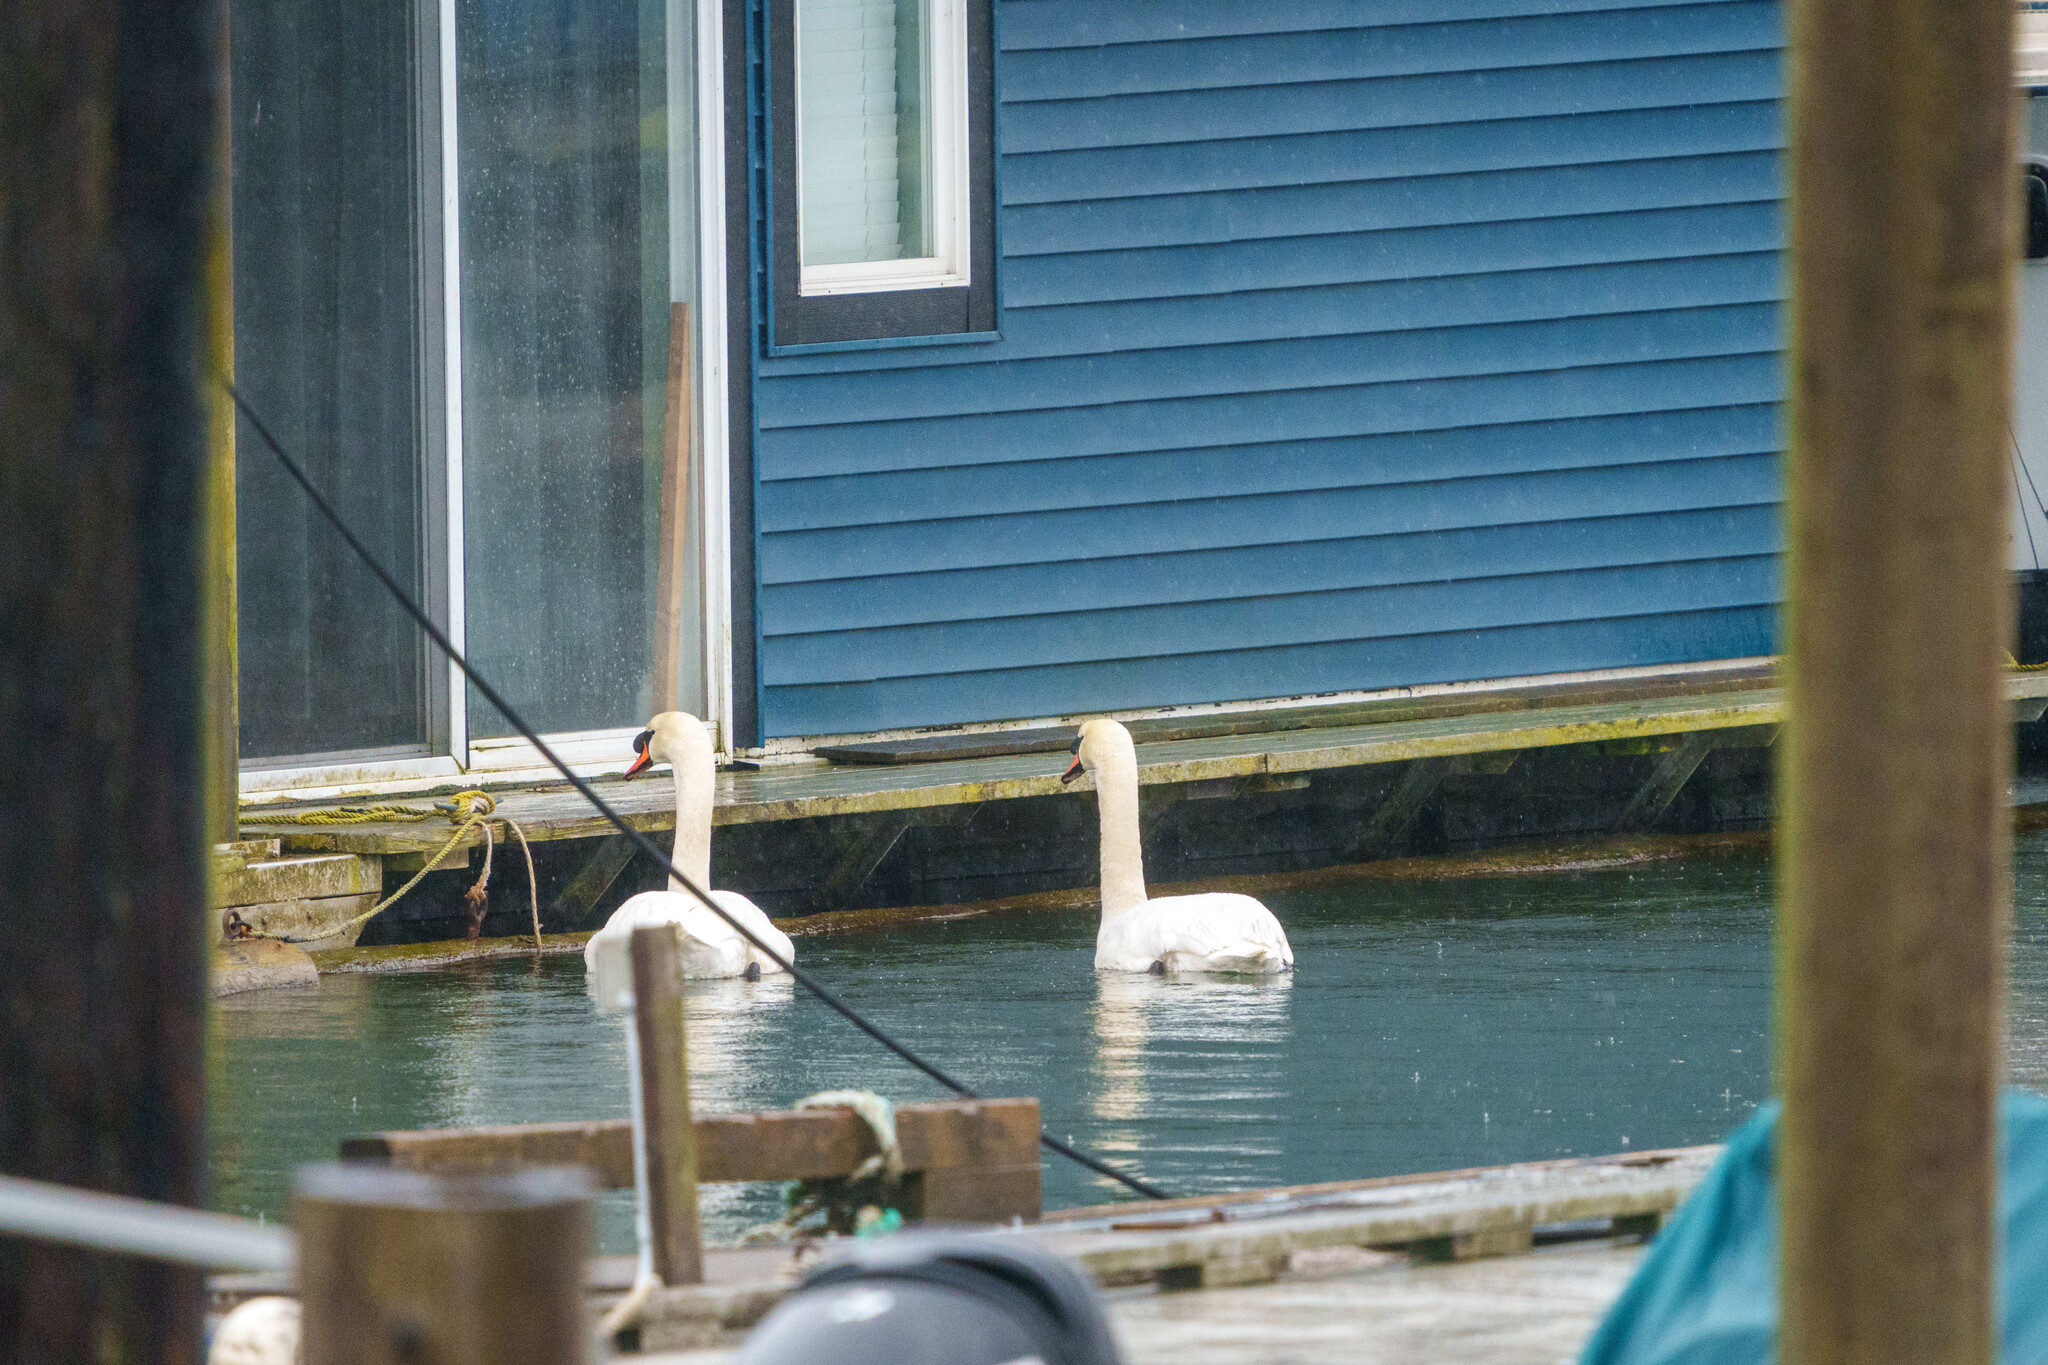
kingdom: Animalia
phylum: Chordata
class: Aves
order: Anseriformes
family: Anatidae
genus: Cygnus
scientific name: Cygnus olor
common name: Mute swan
